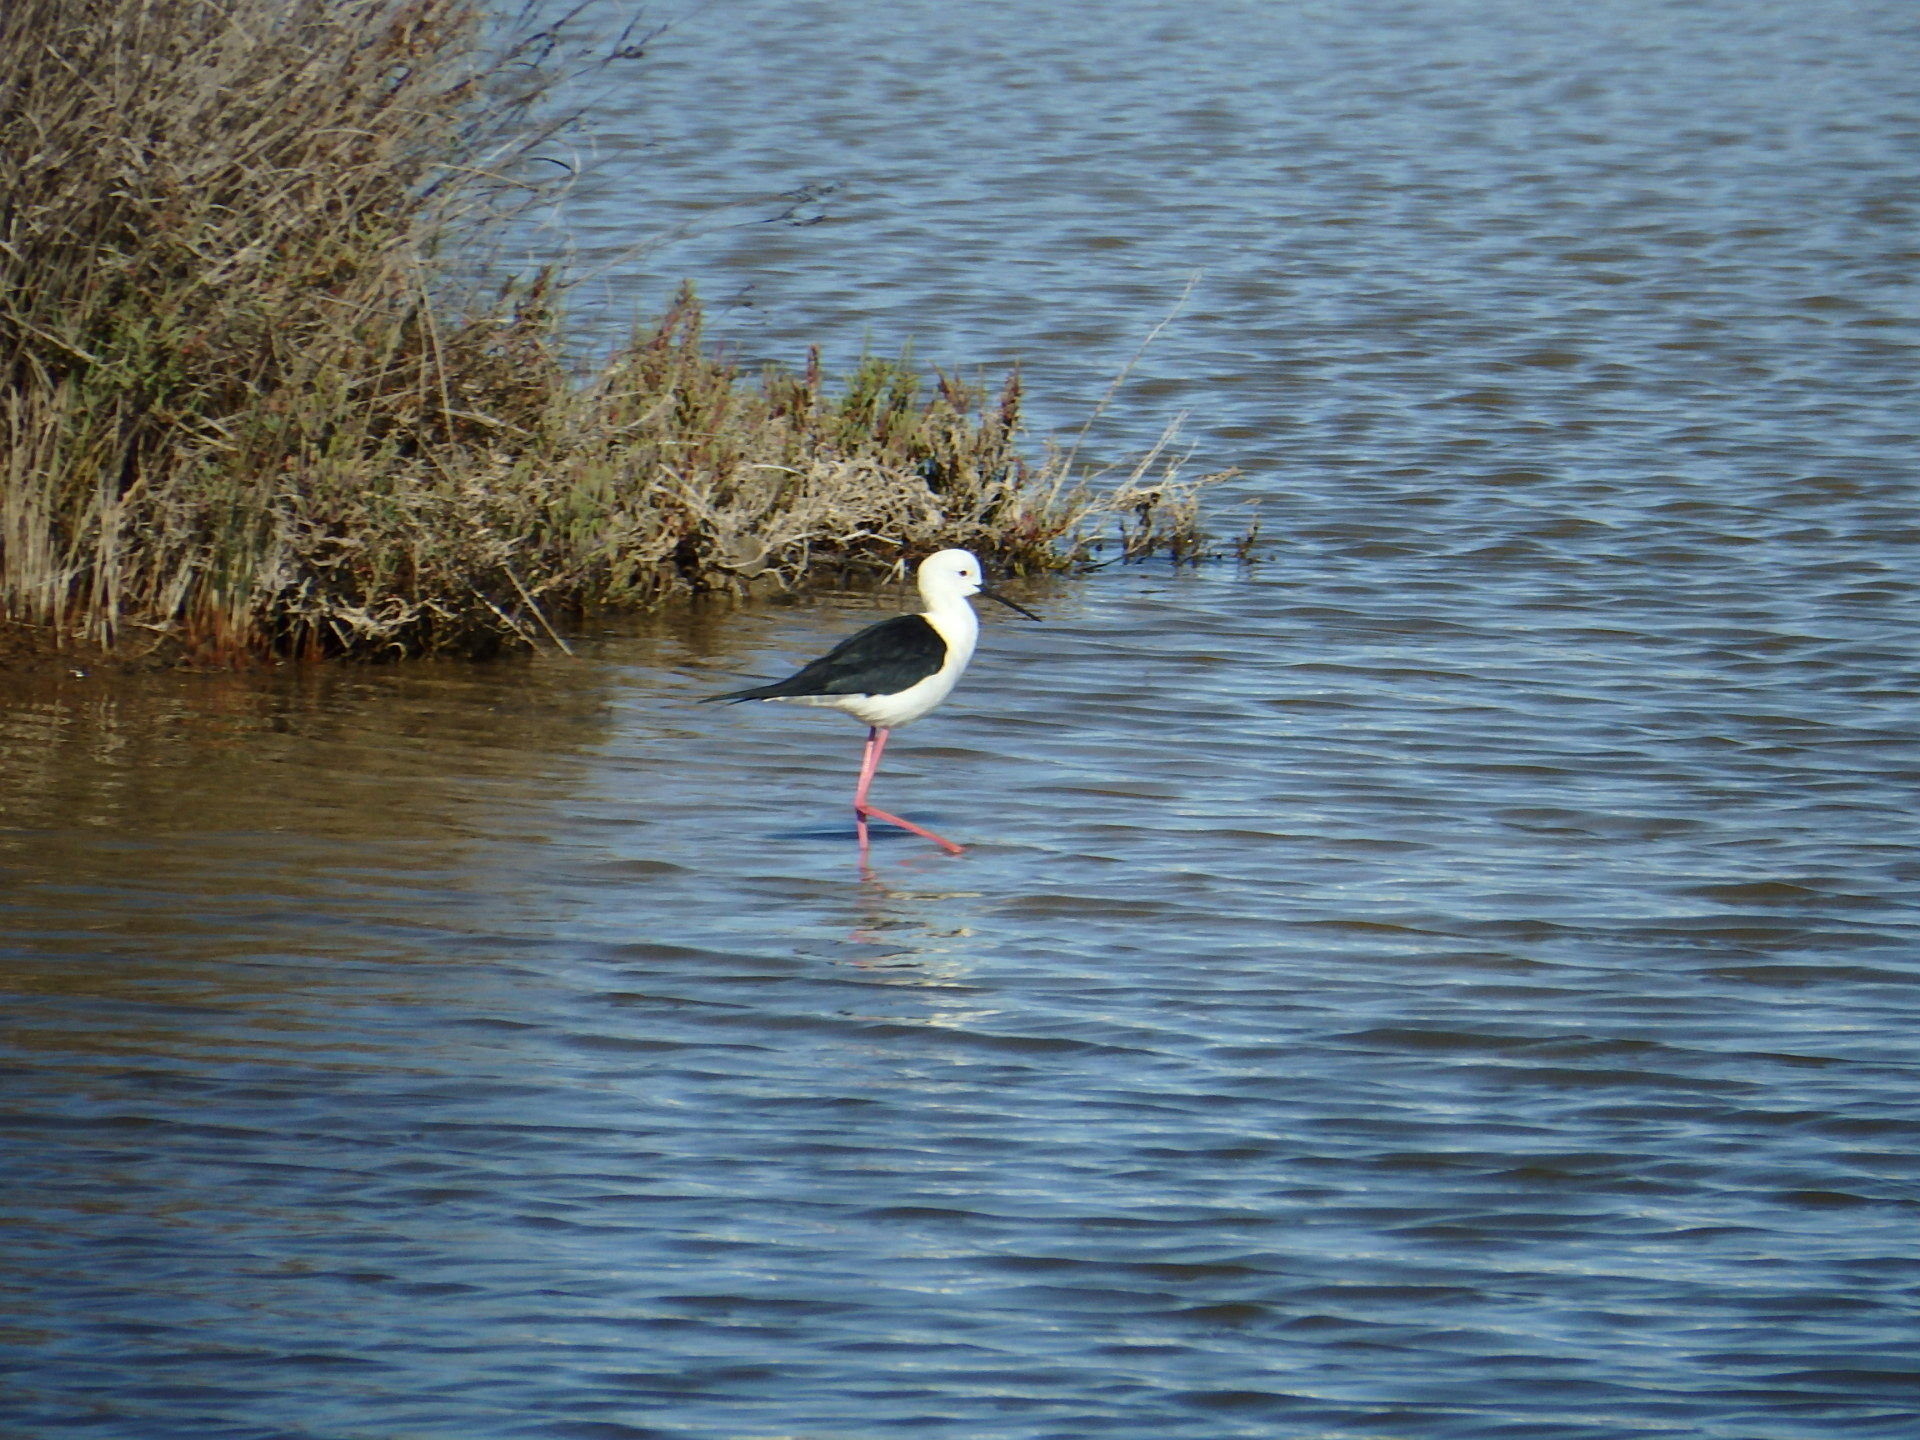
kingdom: Animalia
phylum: Chordata
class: Aves
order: Charadriiformes
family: Recurvirostridae
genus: Himantopus
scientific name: Himantopus himantopus
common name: Black-winged stilt
